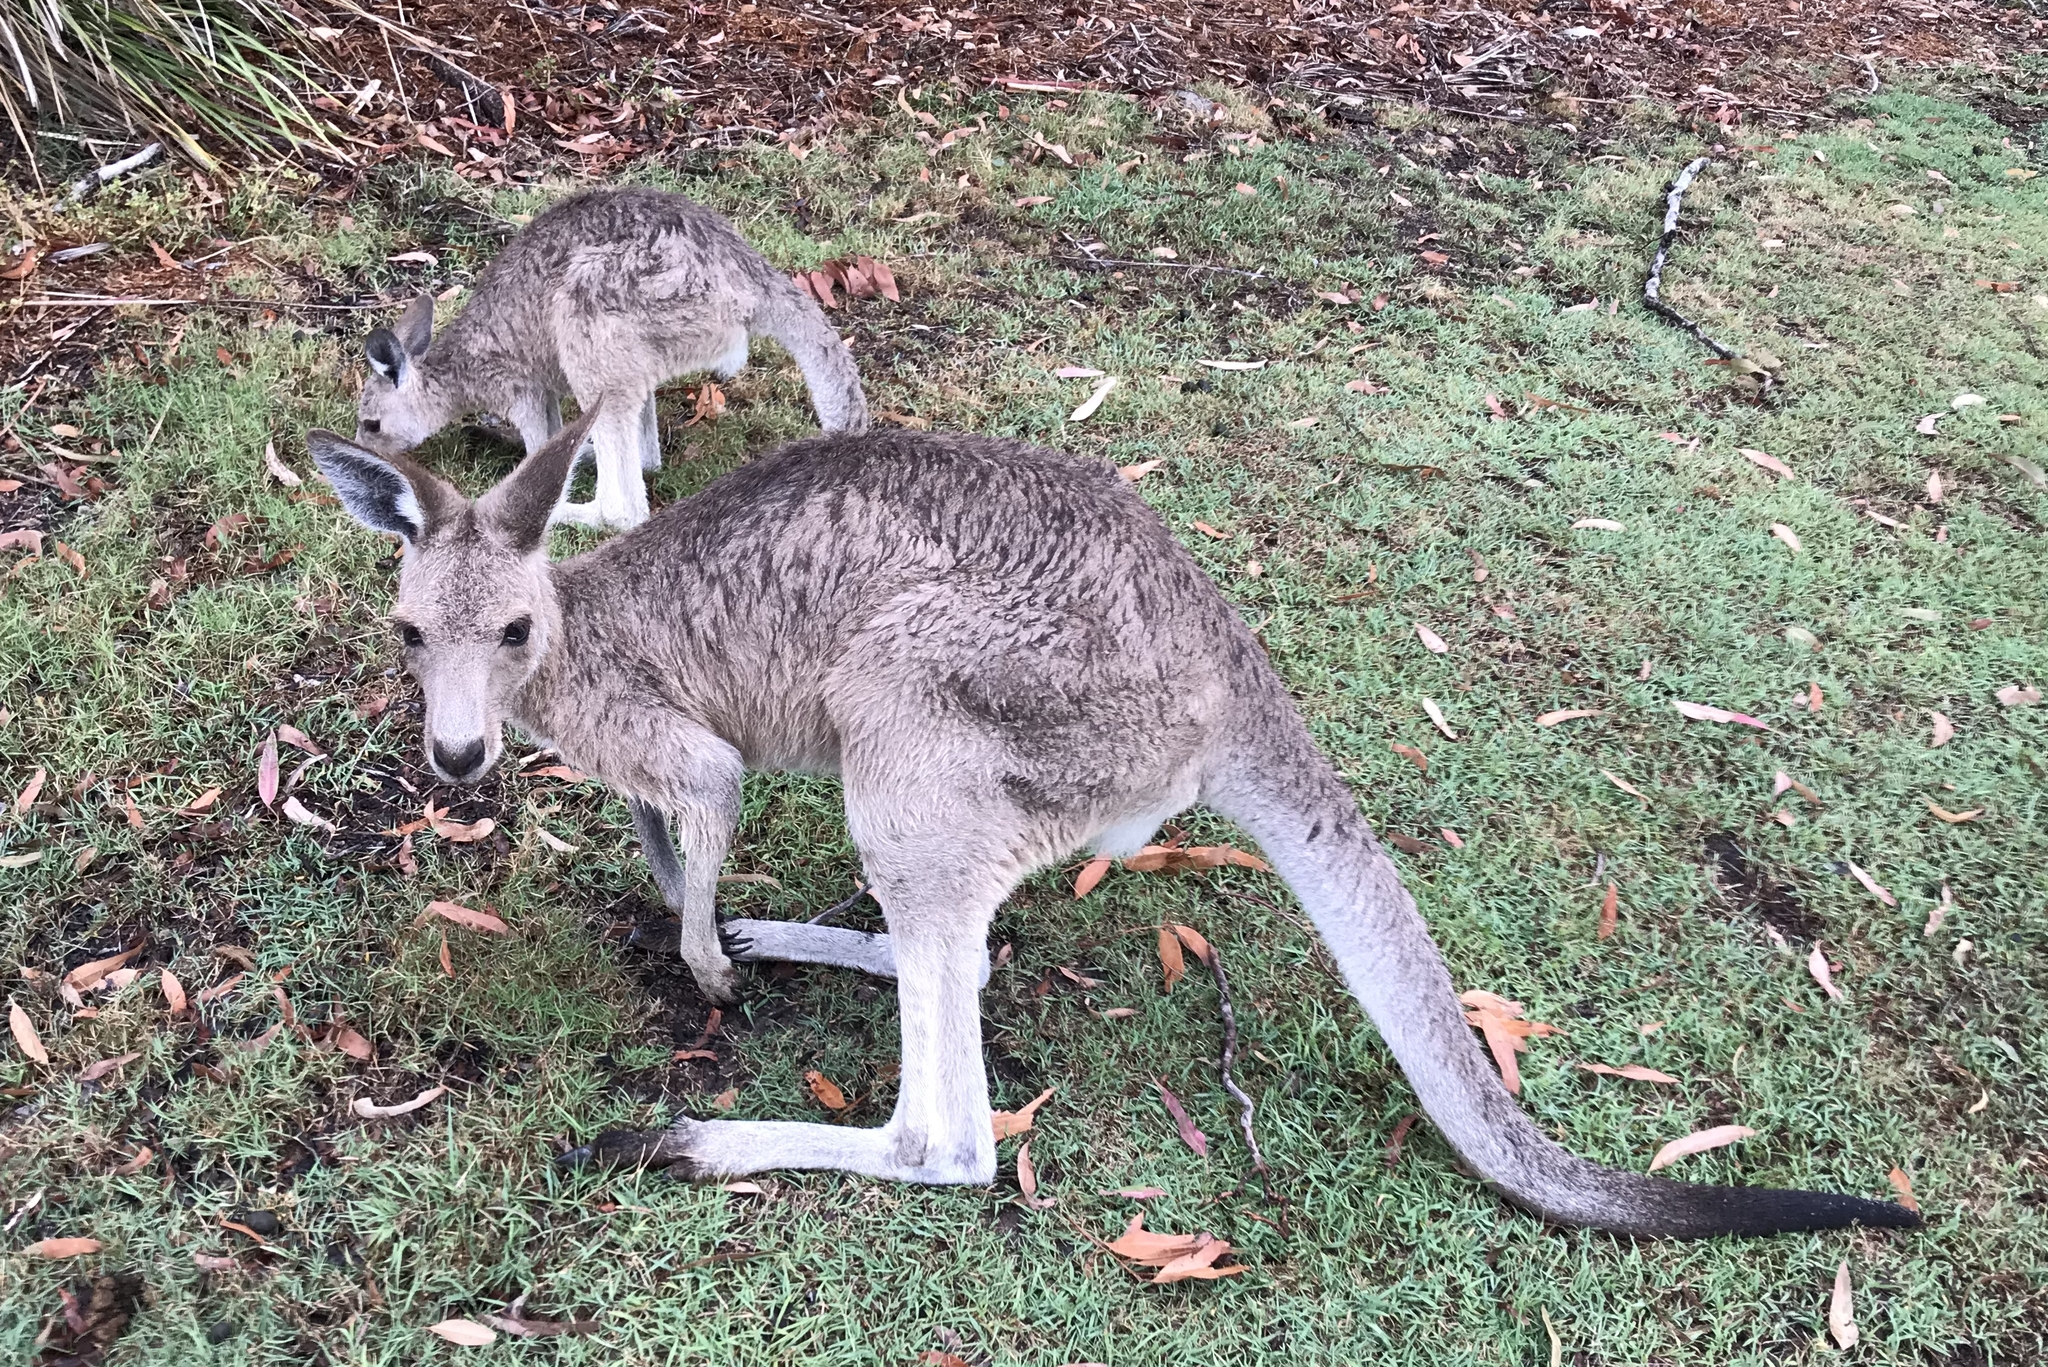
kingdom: Animalia
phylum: Chordata
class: Mammalia
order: Diprotodontia
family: Macropodidae
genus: Macropus
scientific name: Macropus giganteus
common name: Eastern grey kangaroo
